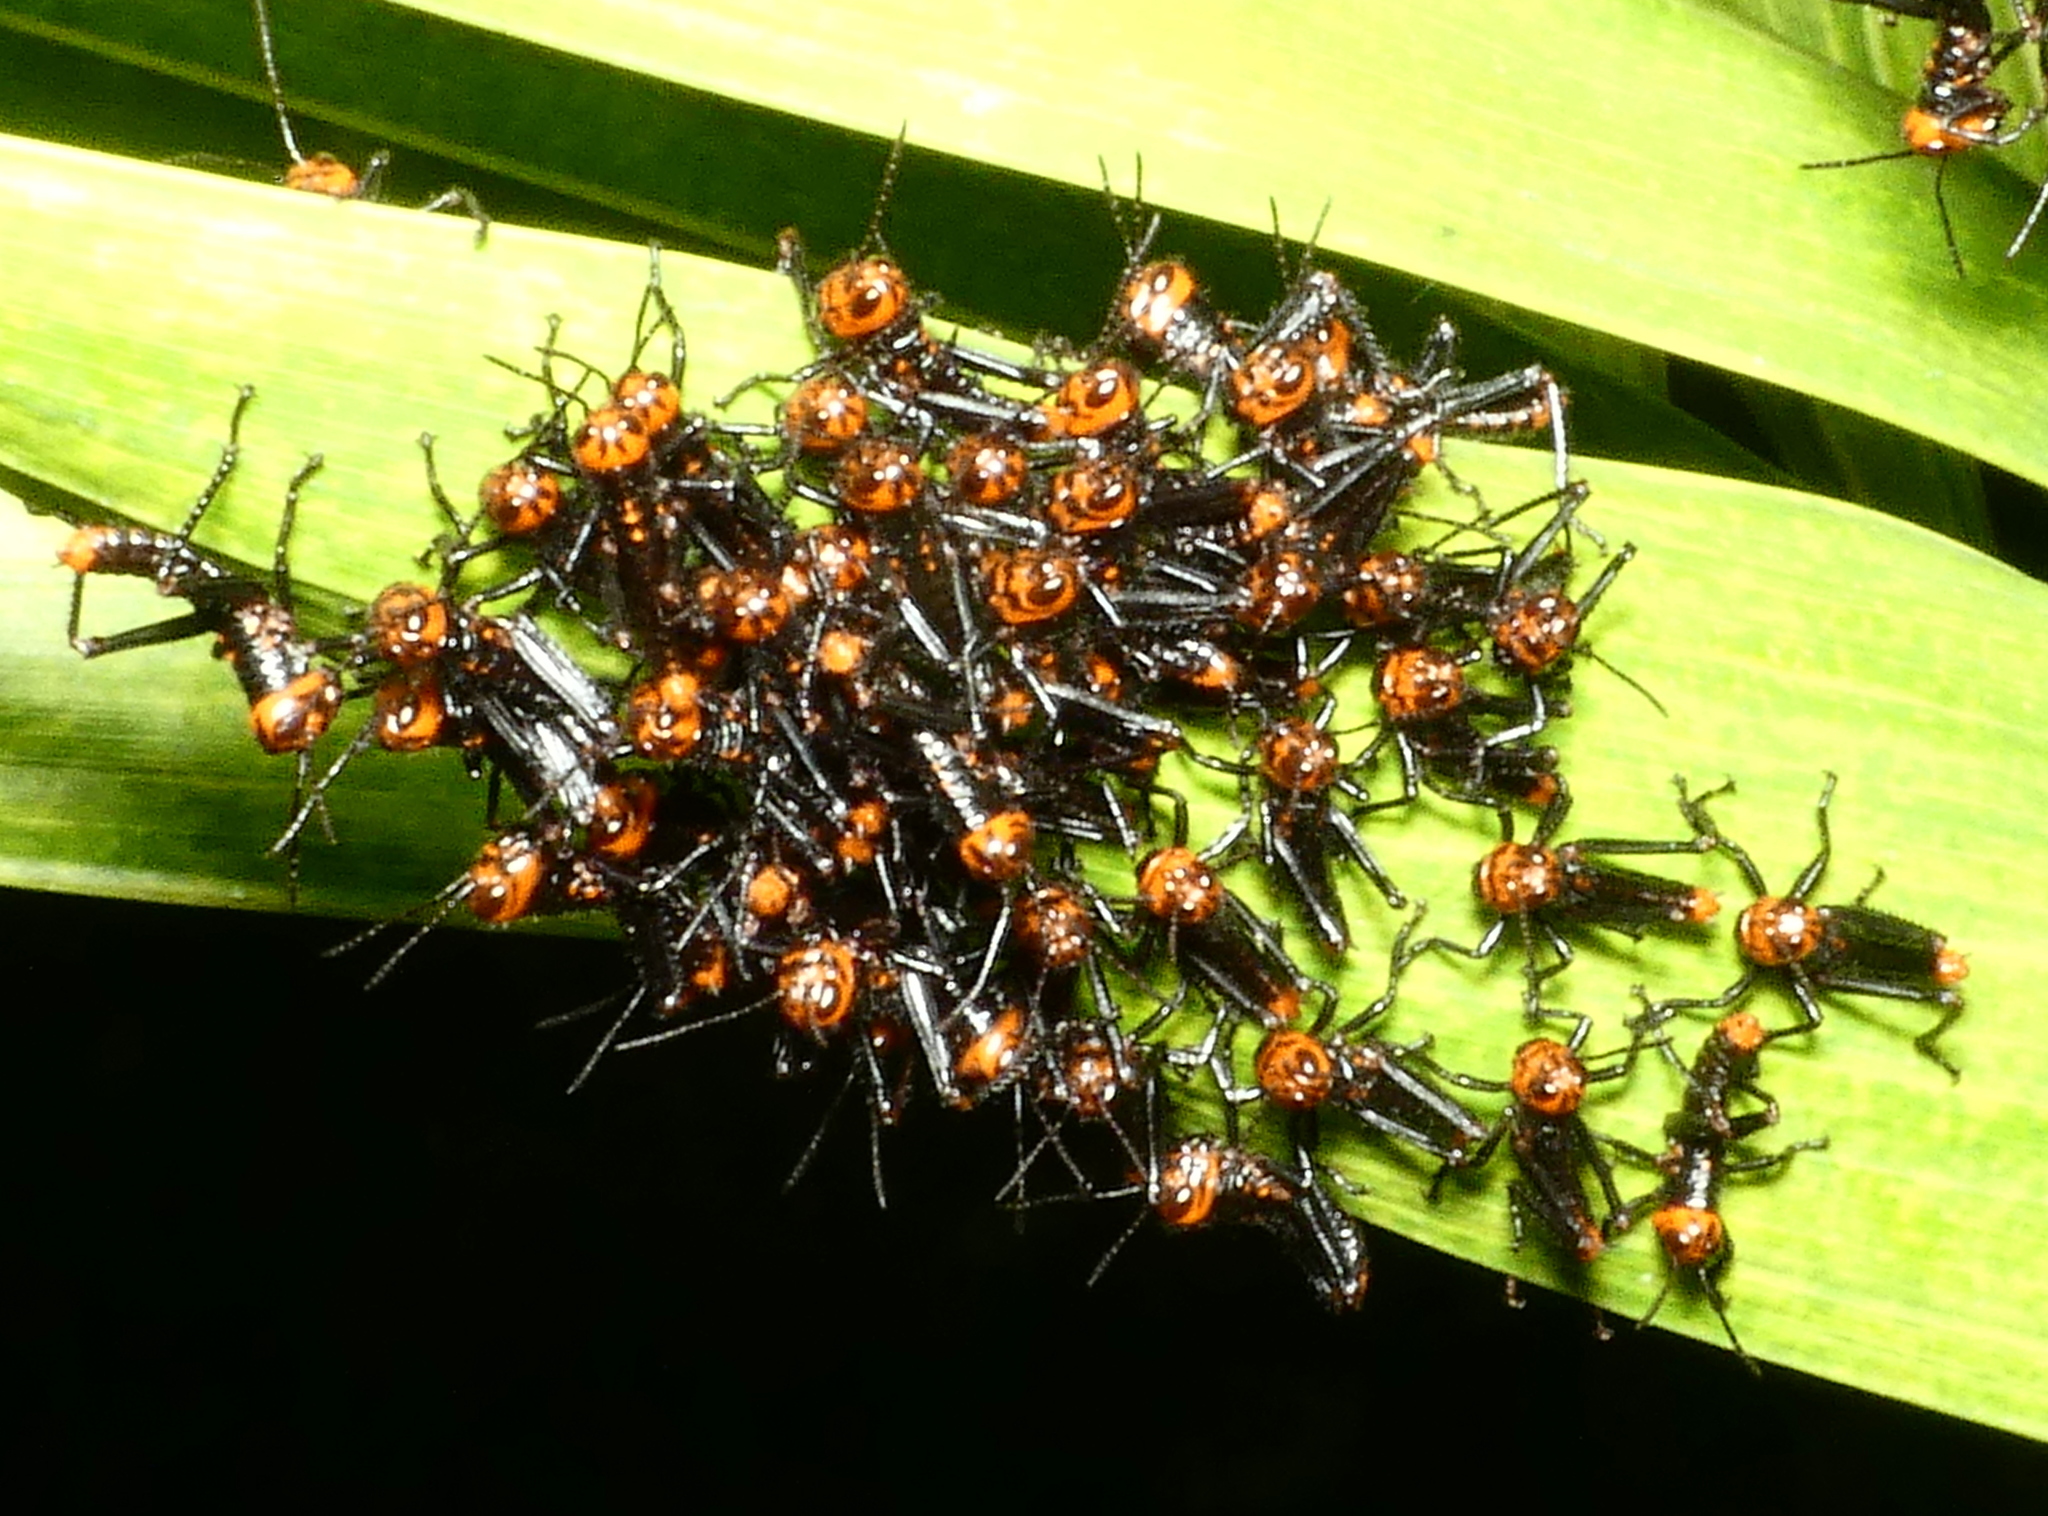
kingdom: Animalia
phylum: Arthropoda
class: Insecta
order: Orthoptera
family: Romaleidae
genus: Tropidacris
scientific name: Tropidacris collaris
